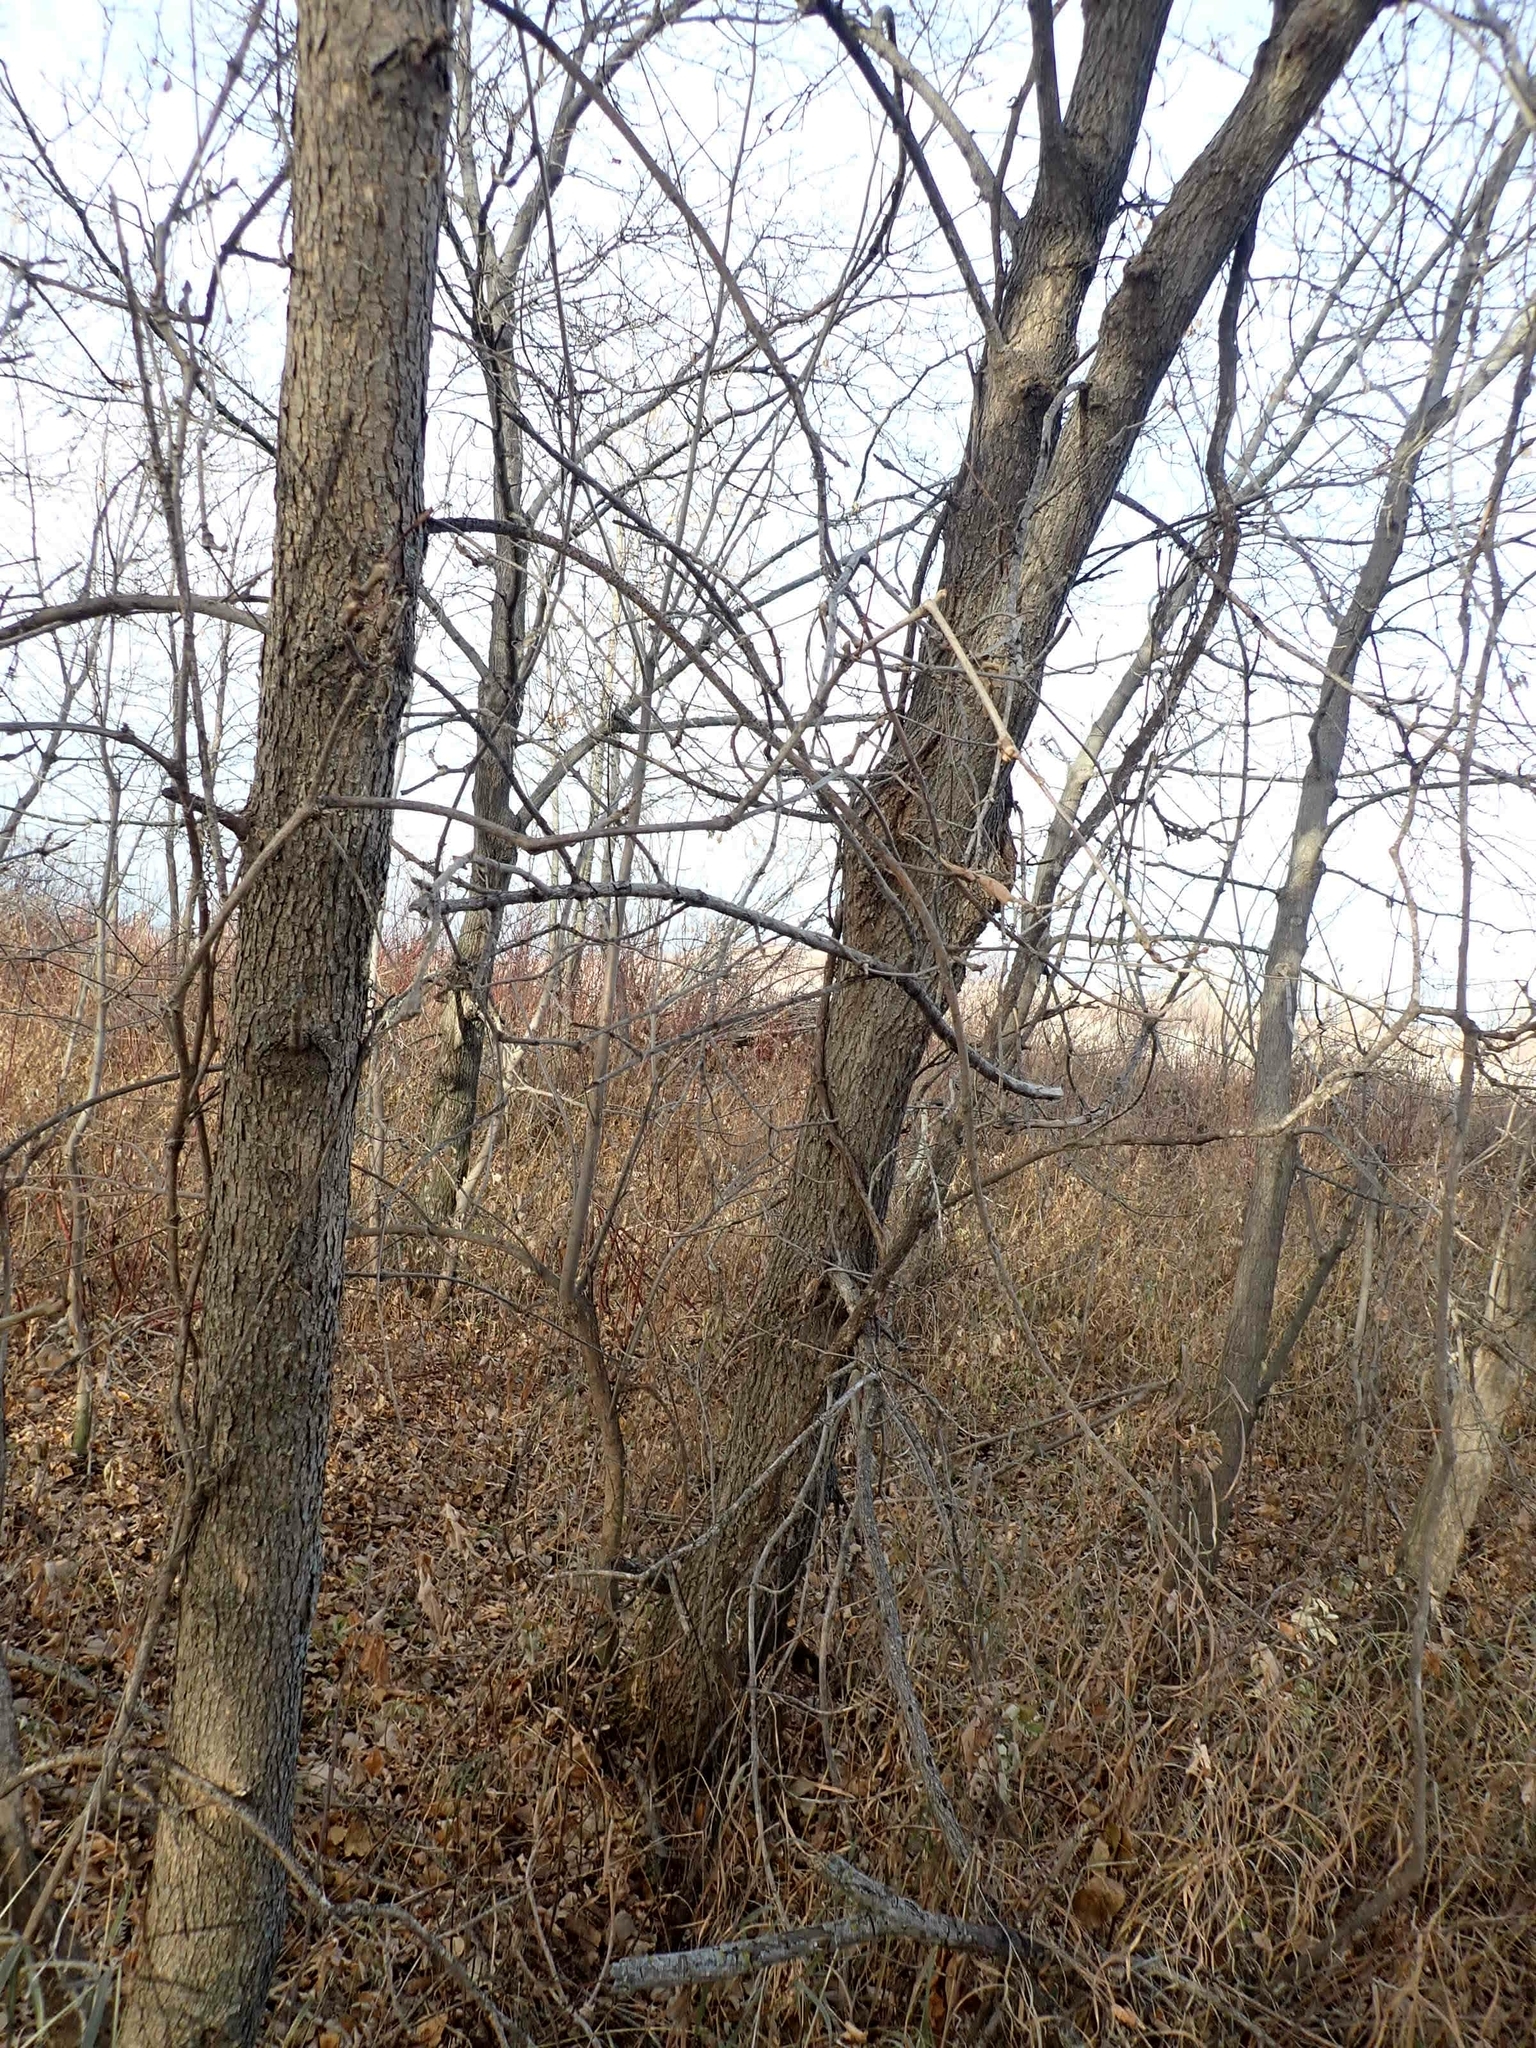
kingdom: Plantae
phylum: Tracheophyta
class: Magnoliopsida
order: Sapindales
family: Sapindaceae
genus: Acer
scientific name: Acer negundo
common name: Ashleaf maple
